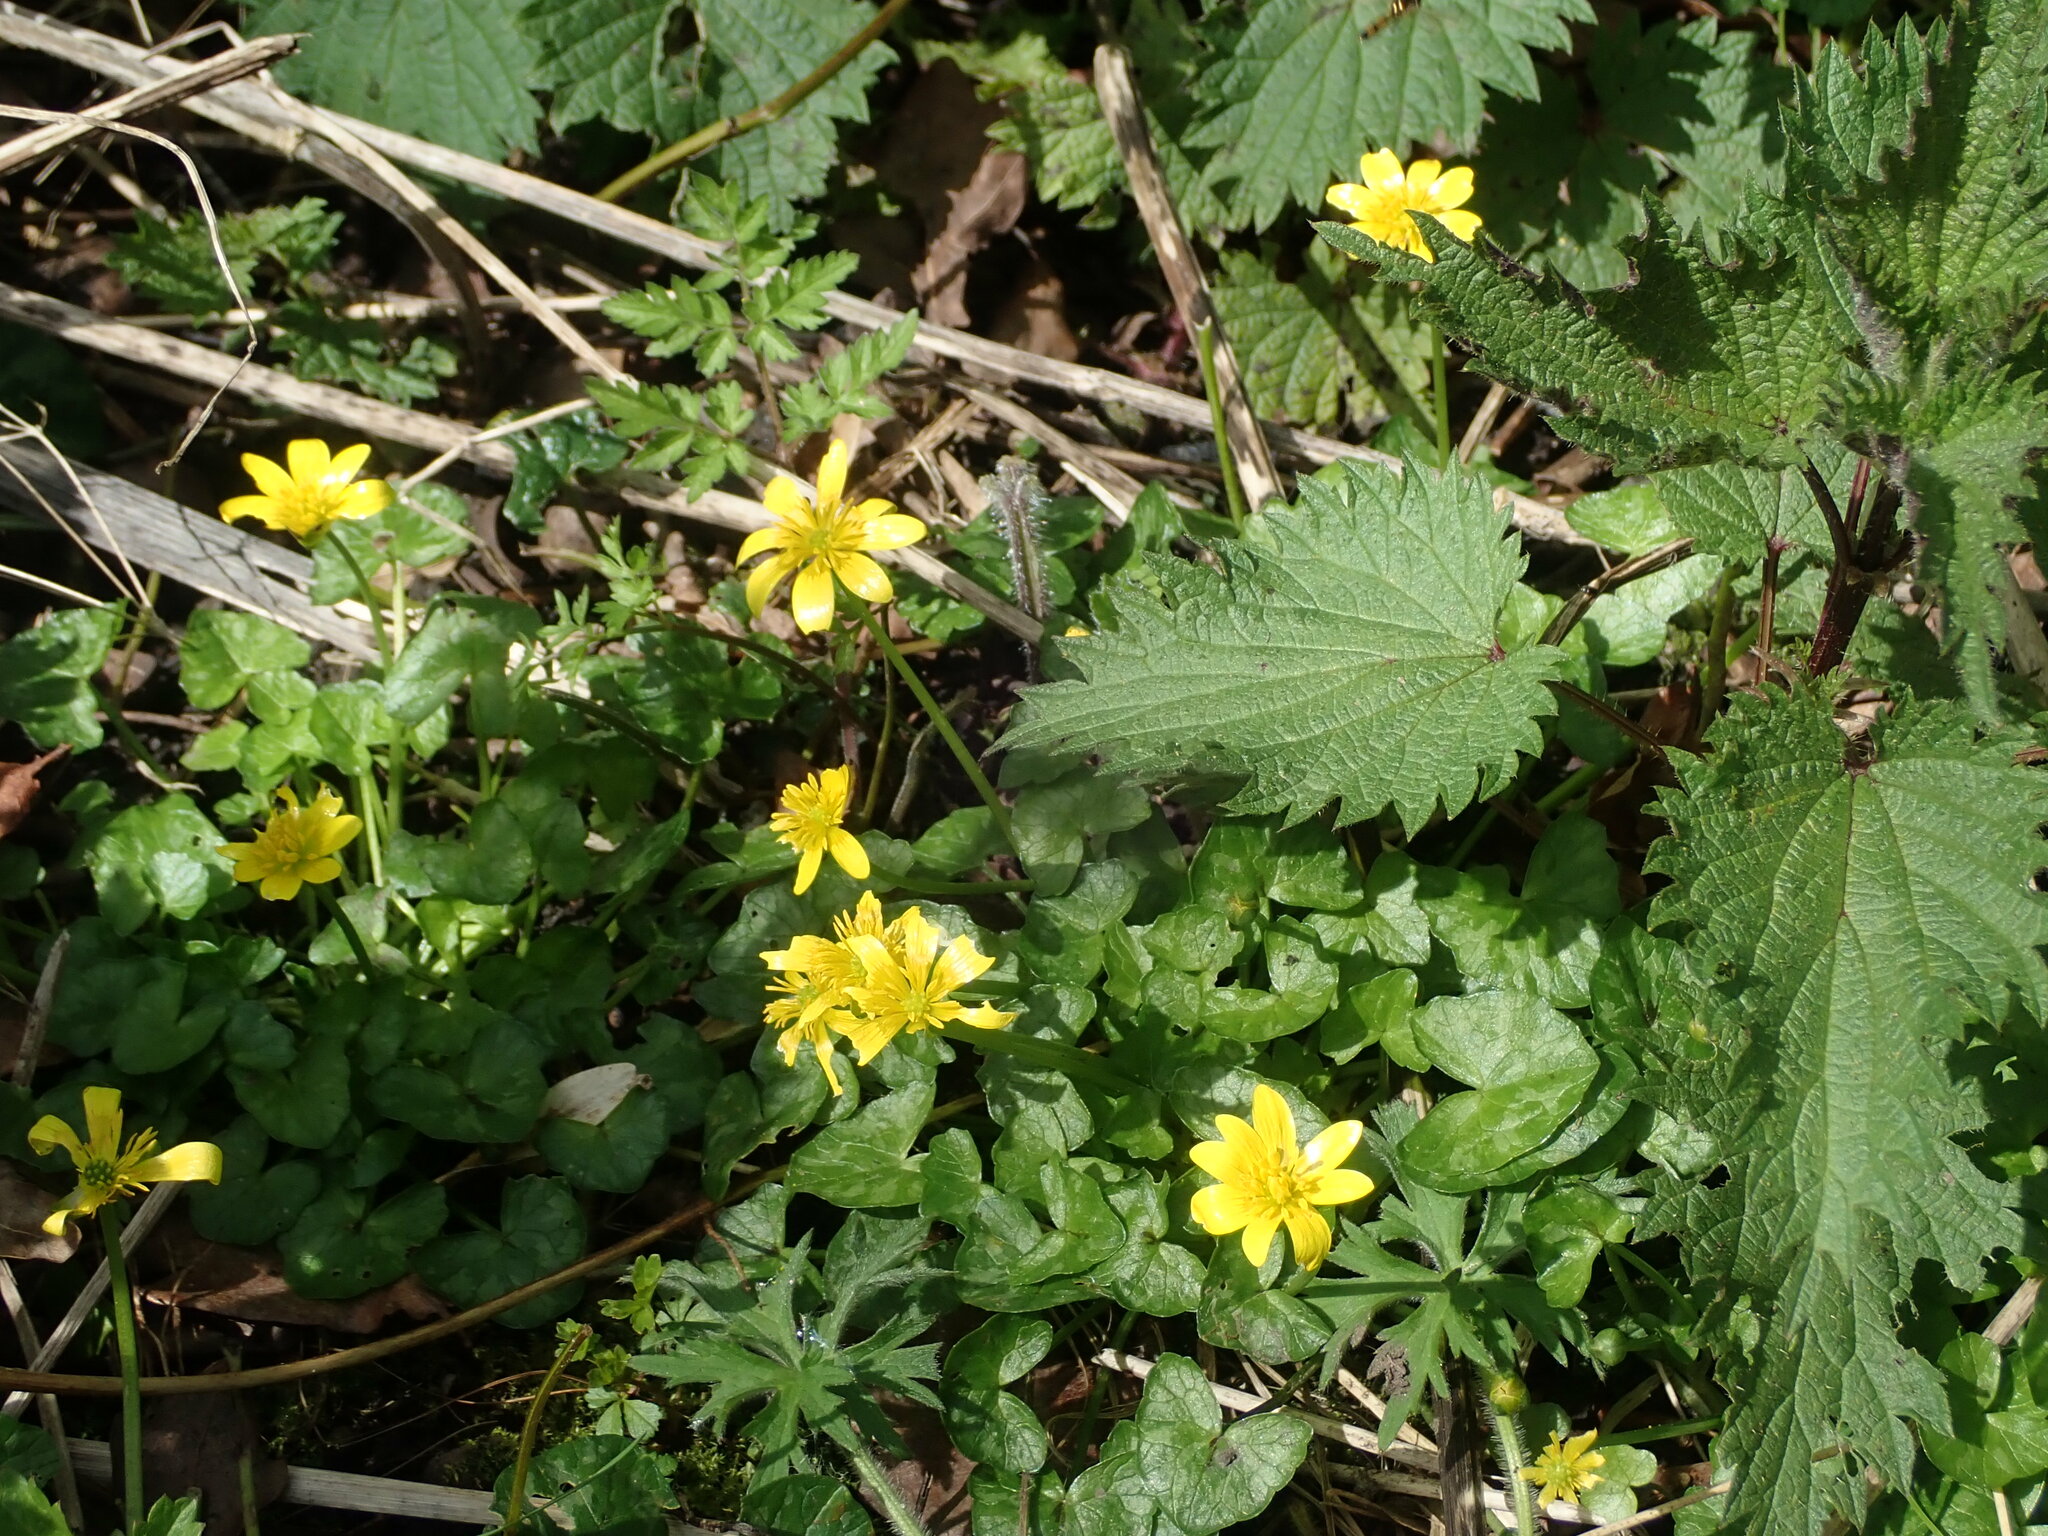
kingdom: Plantae
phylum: Tracheophyta
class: Magnoliopsida
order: Ranunculales
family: Ranunculaceae
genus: Ficaria
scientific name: Ficaria verna
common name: Lesser celandine
